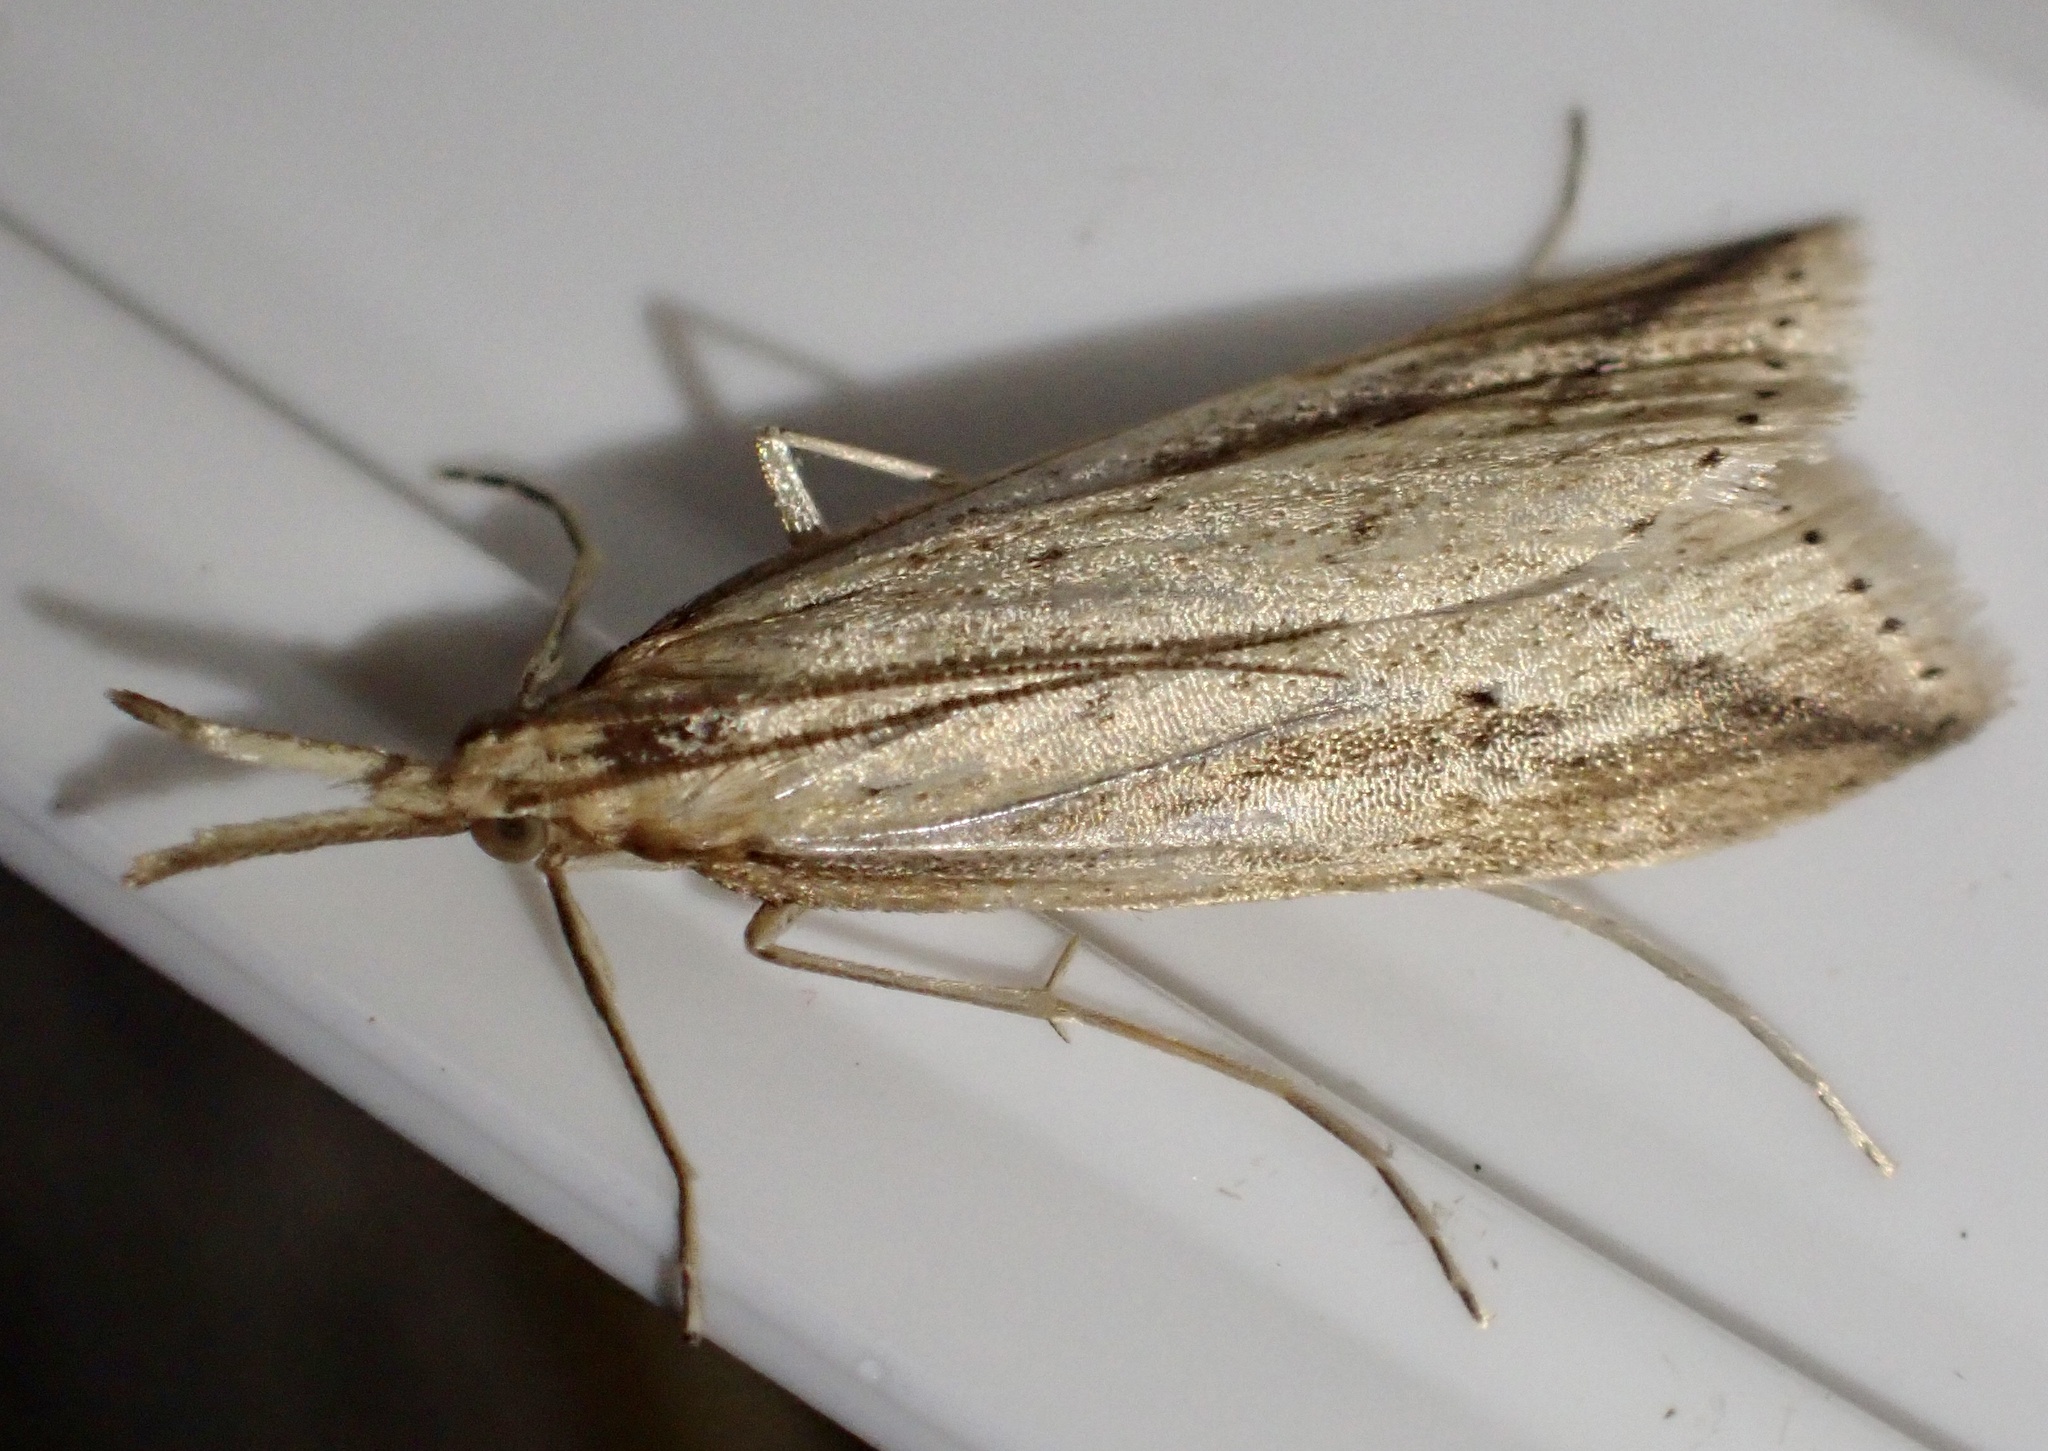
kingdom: Animalia
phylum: Arthropoda
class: Insecta
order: Lepidoptera
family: Crambidae
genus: Donacaula
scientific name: Donacaula forficella
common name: Pale water-veneer
